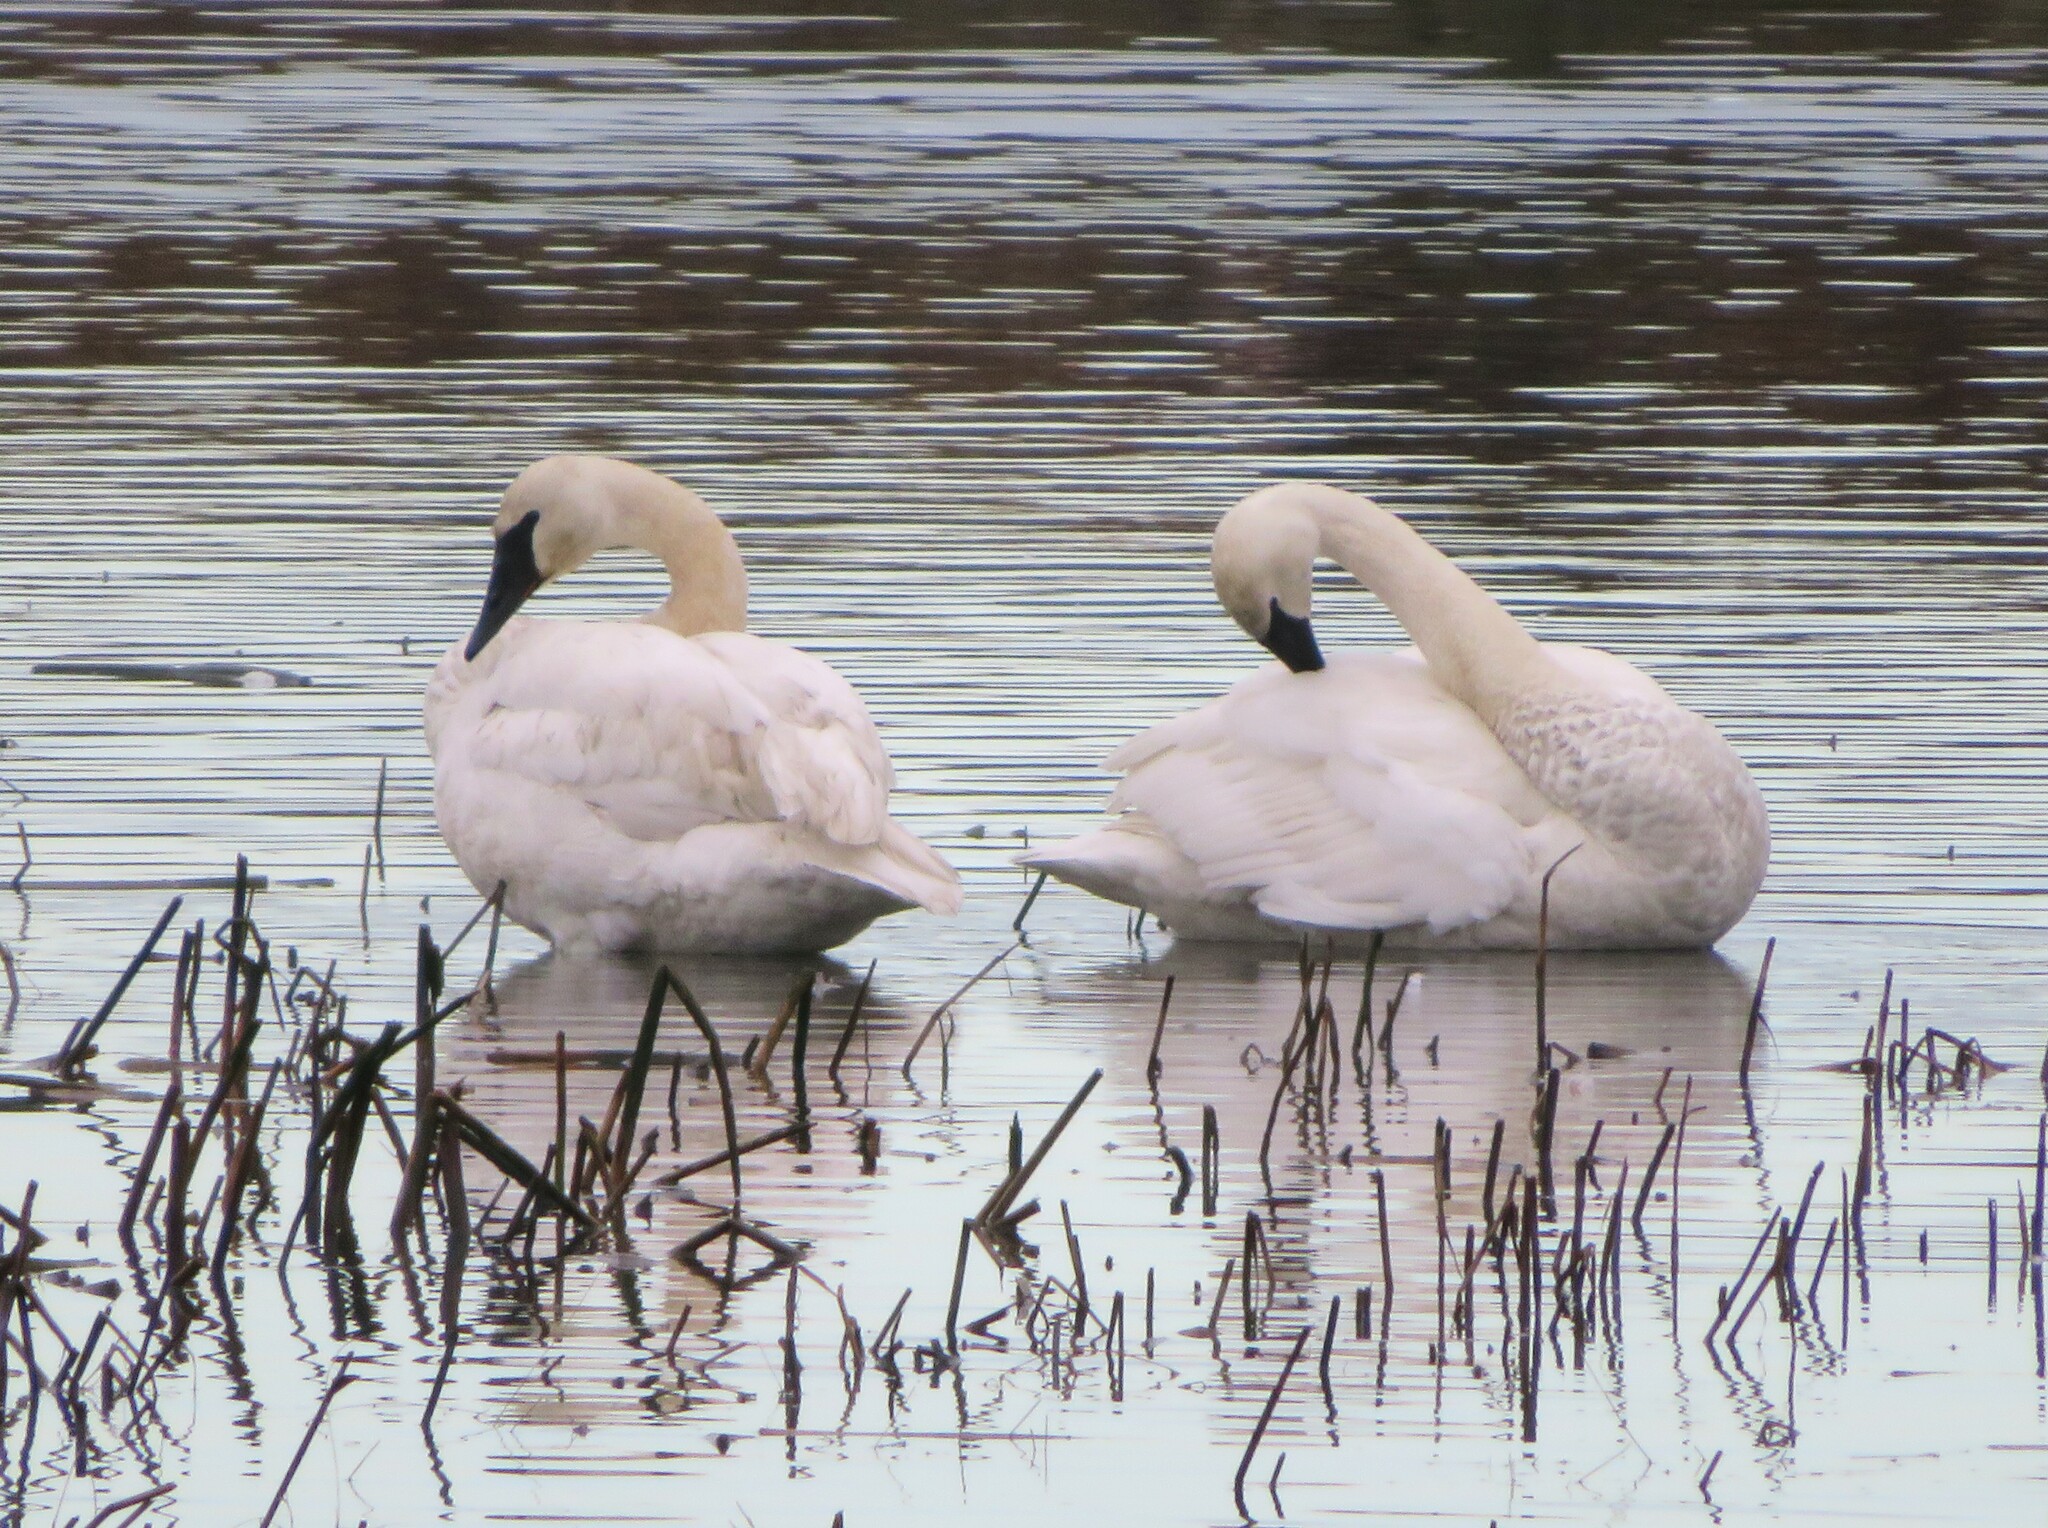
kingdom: Animalia
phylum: Chordata
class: Aves
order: Anseriformes
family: Anatidae
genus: Cygnus
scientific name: Cygnus buccinator
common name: Trumpeter swan
